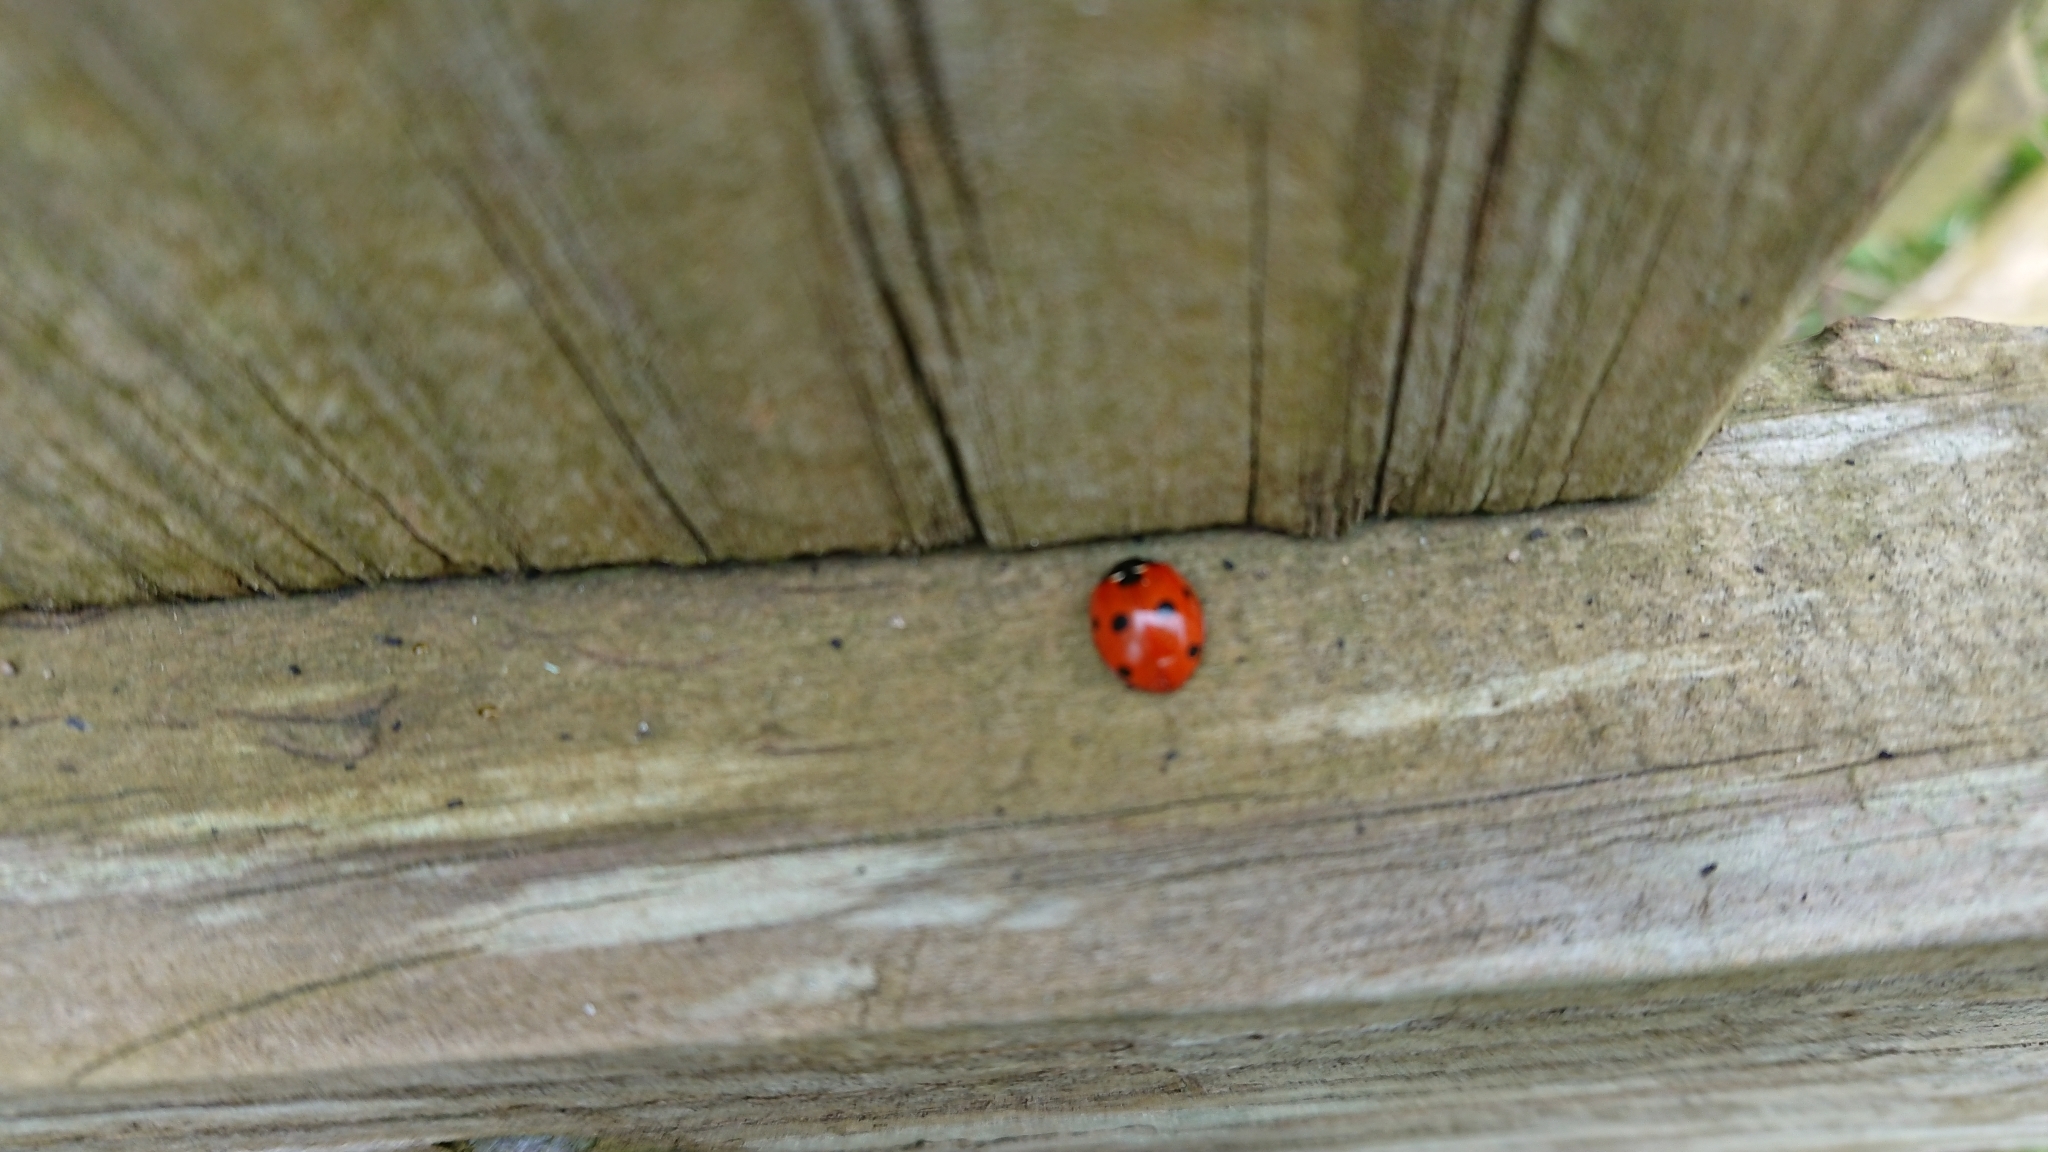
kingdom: Animalia
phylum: Arthropoda
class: Insecta
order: Coleoptera
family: Coccinellidae
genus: Coccinella
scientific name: Coccinella septempunctata
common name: Sevenspotted lady beetle
